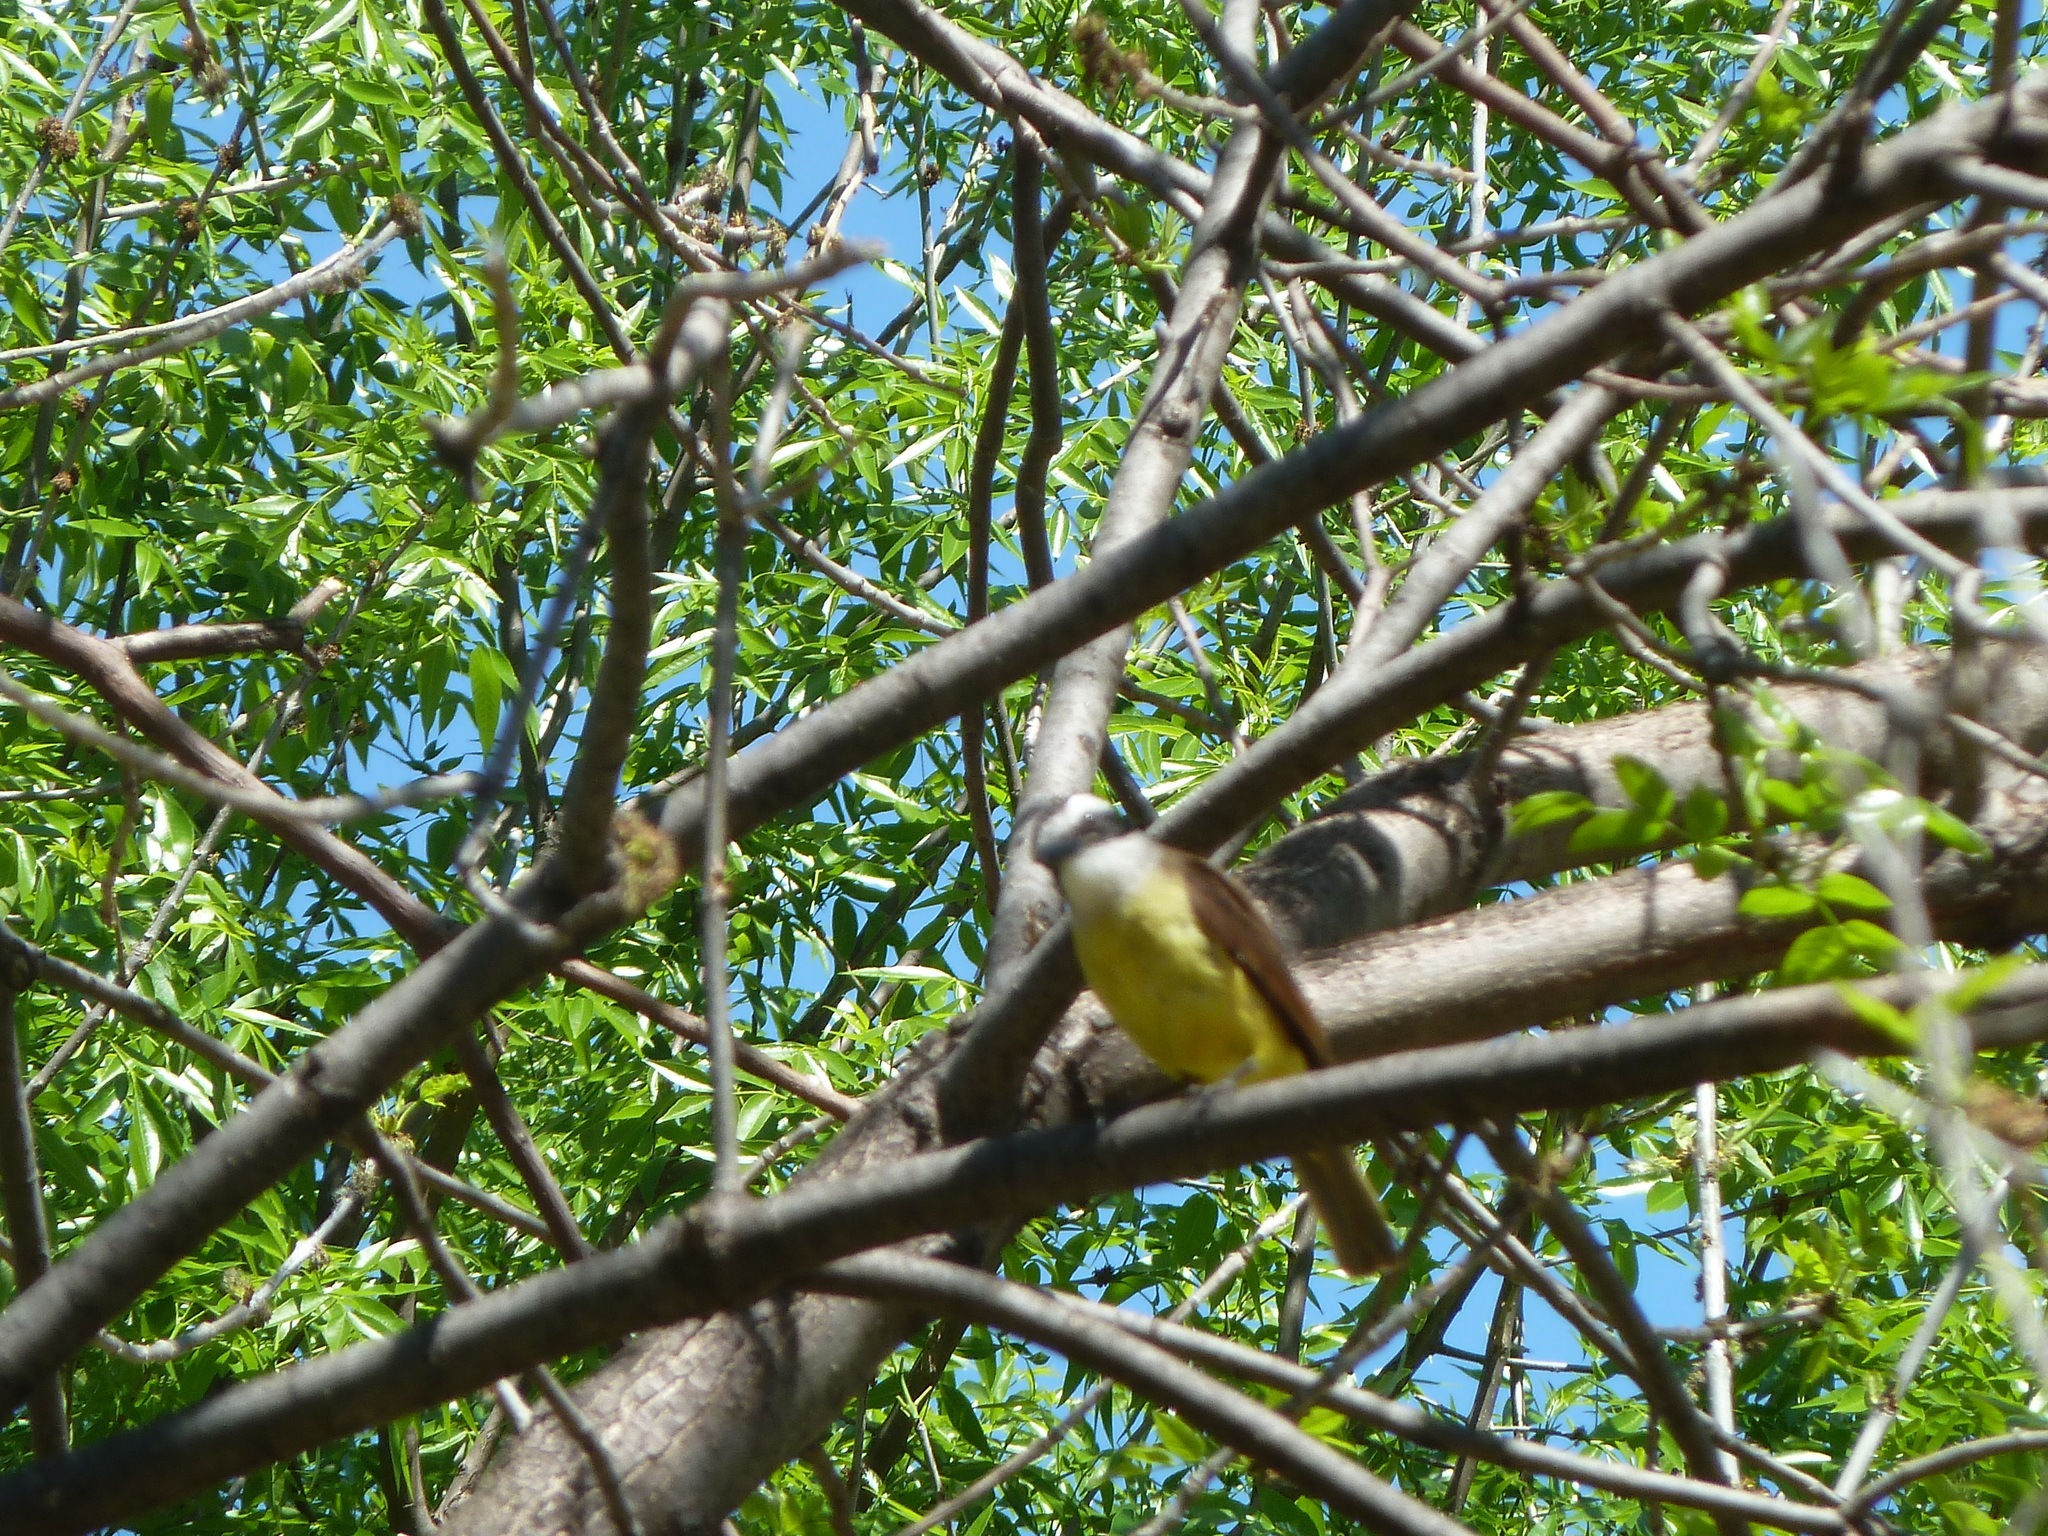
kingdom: Animalia
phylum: Chordata
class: Aves
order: Passeriformes
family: Tyrannidae
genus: Pitangus
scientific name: Pitangus sulphuratus
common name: Great kiskadee
